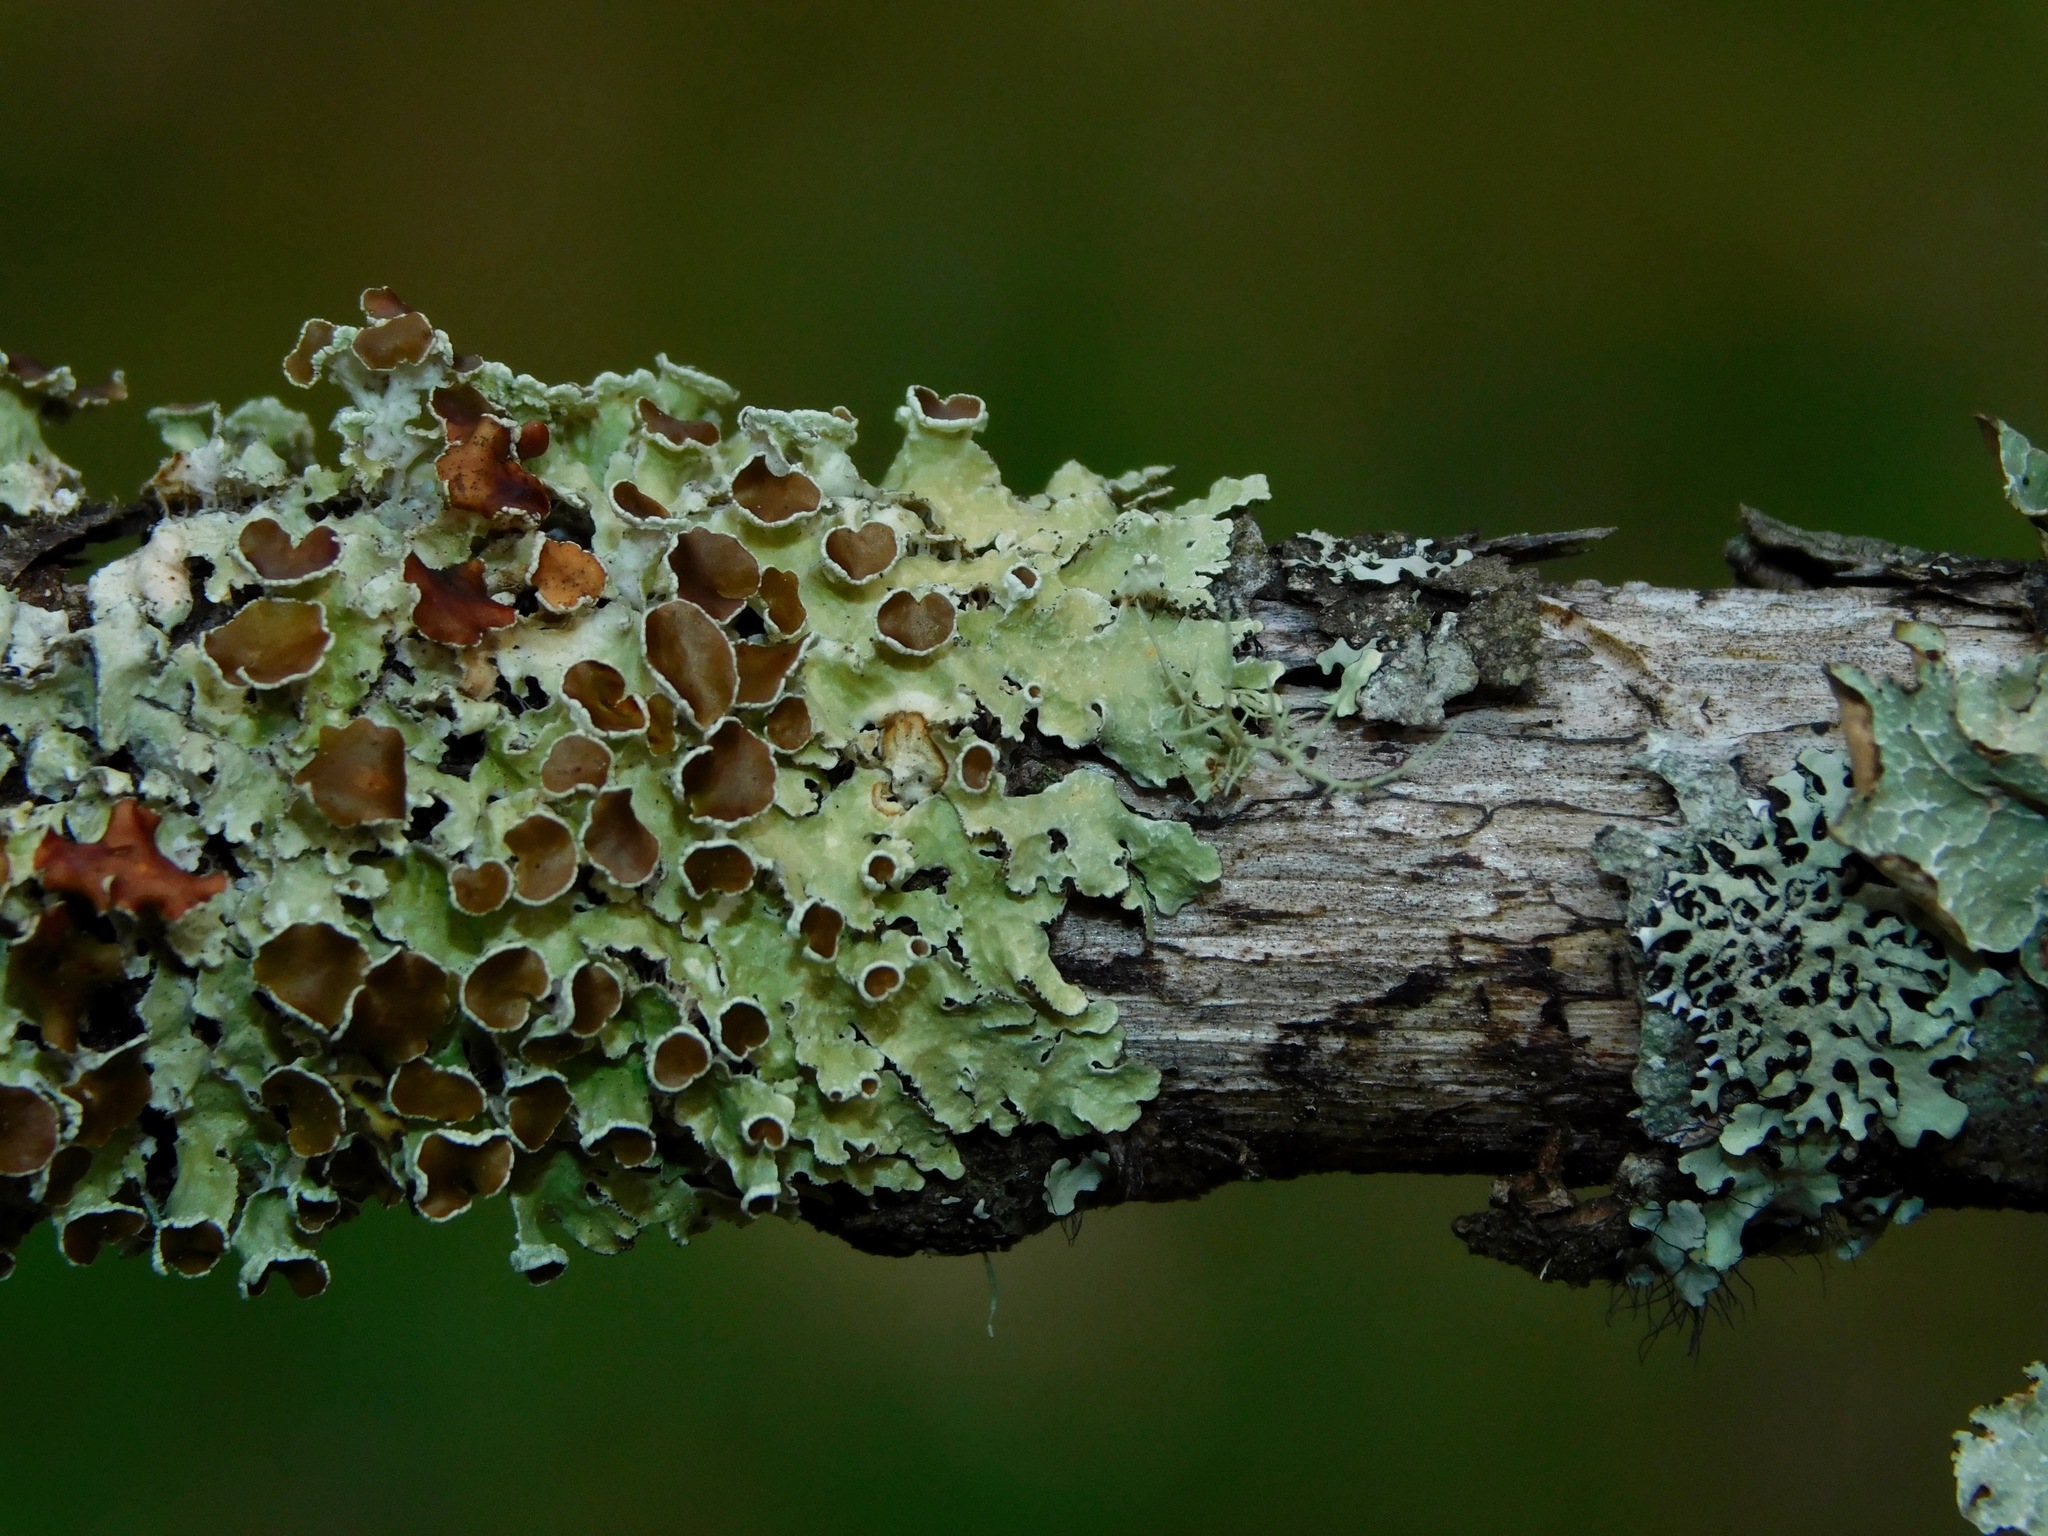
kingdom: Fungi
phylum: Ascomycota
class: Lecanoromycetes
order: Lecanorales
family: Parmeliaceae
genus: Nephromopsis
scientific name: Nephromopsis aurescens
